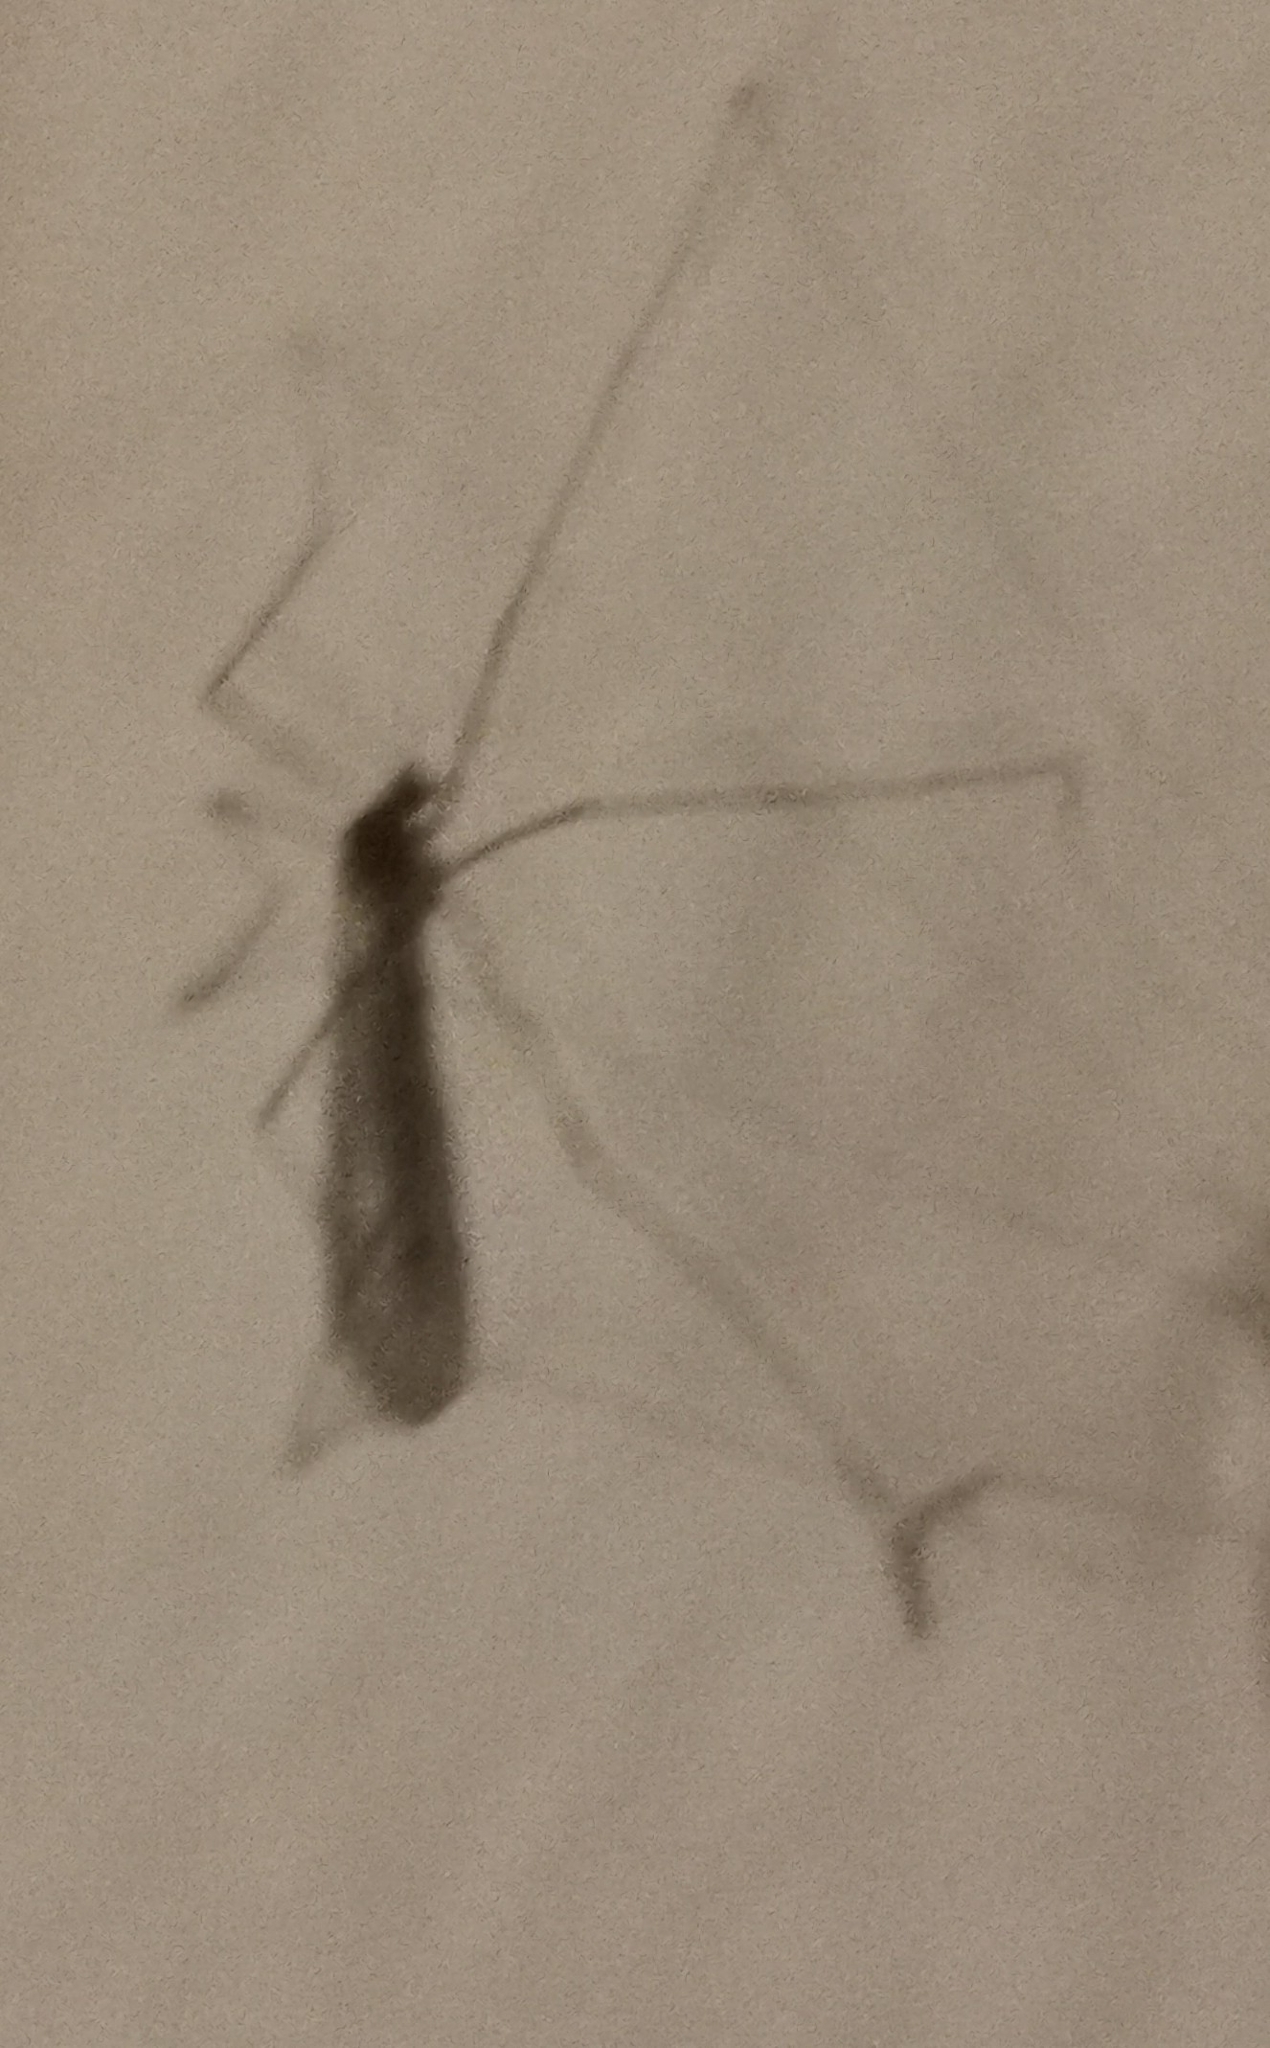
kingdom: Animalia
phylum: Arthropoda
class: Insecta
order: Diptera
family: Trichoceridae
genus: Trichocera
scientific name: Trichocera annulata
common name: Winter gnat
